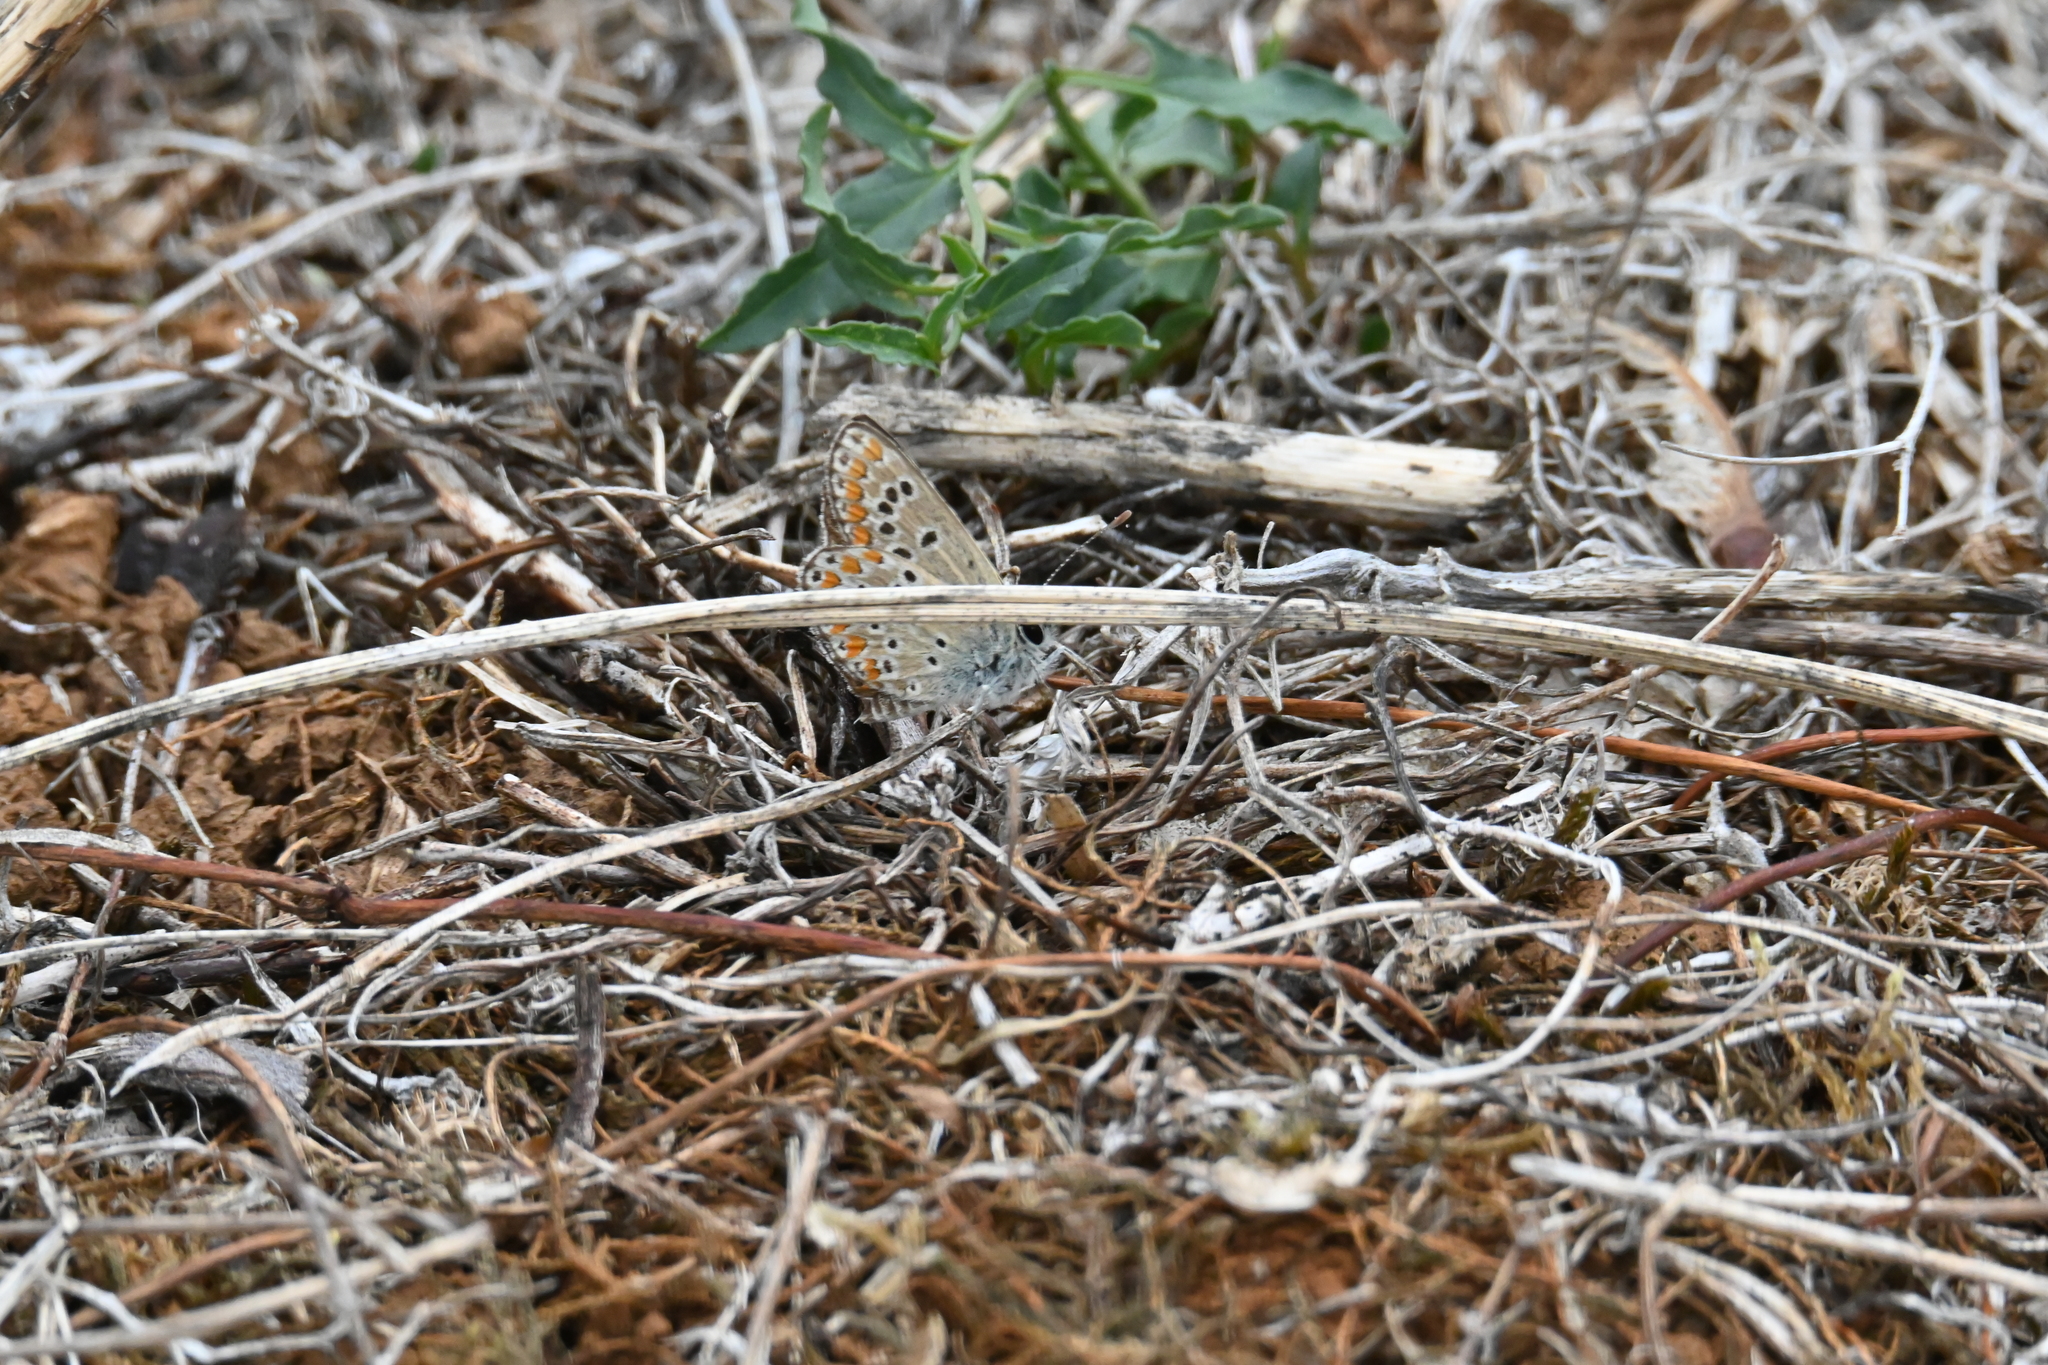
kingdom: Animalia
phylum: Arthropoda
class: Insecta
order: Lepidoptera
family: Lycaenidae
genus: Aricia
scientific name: Aricia agestis
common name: Brown argus
